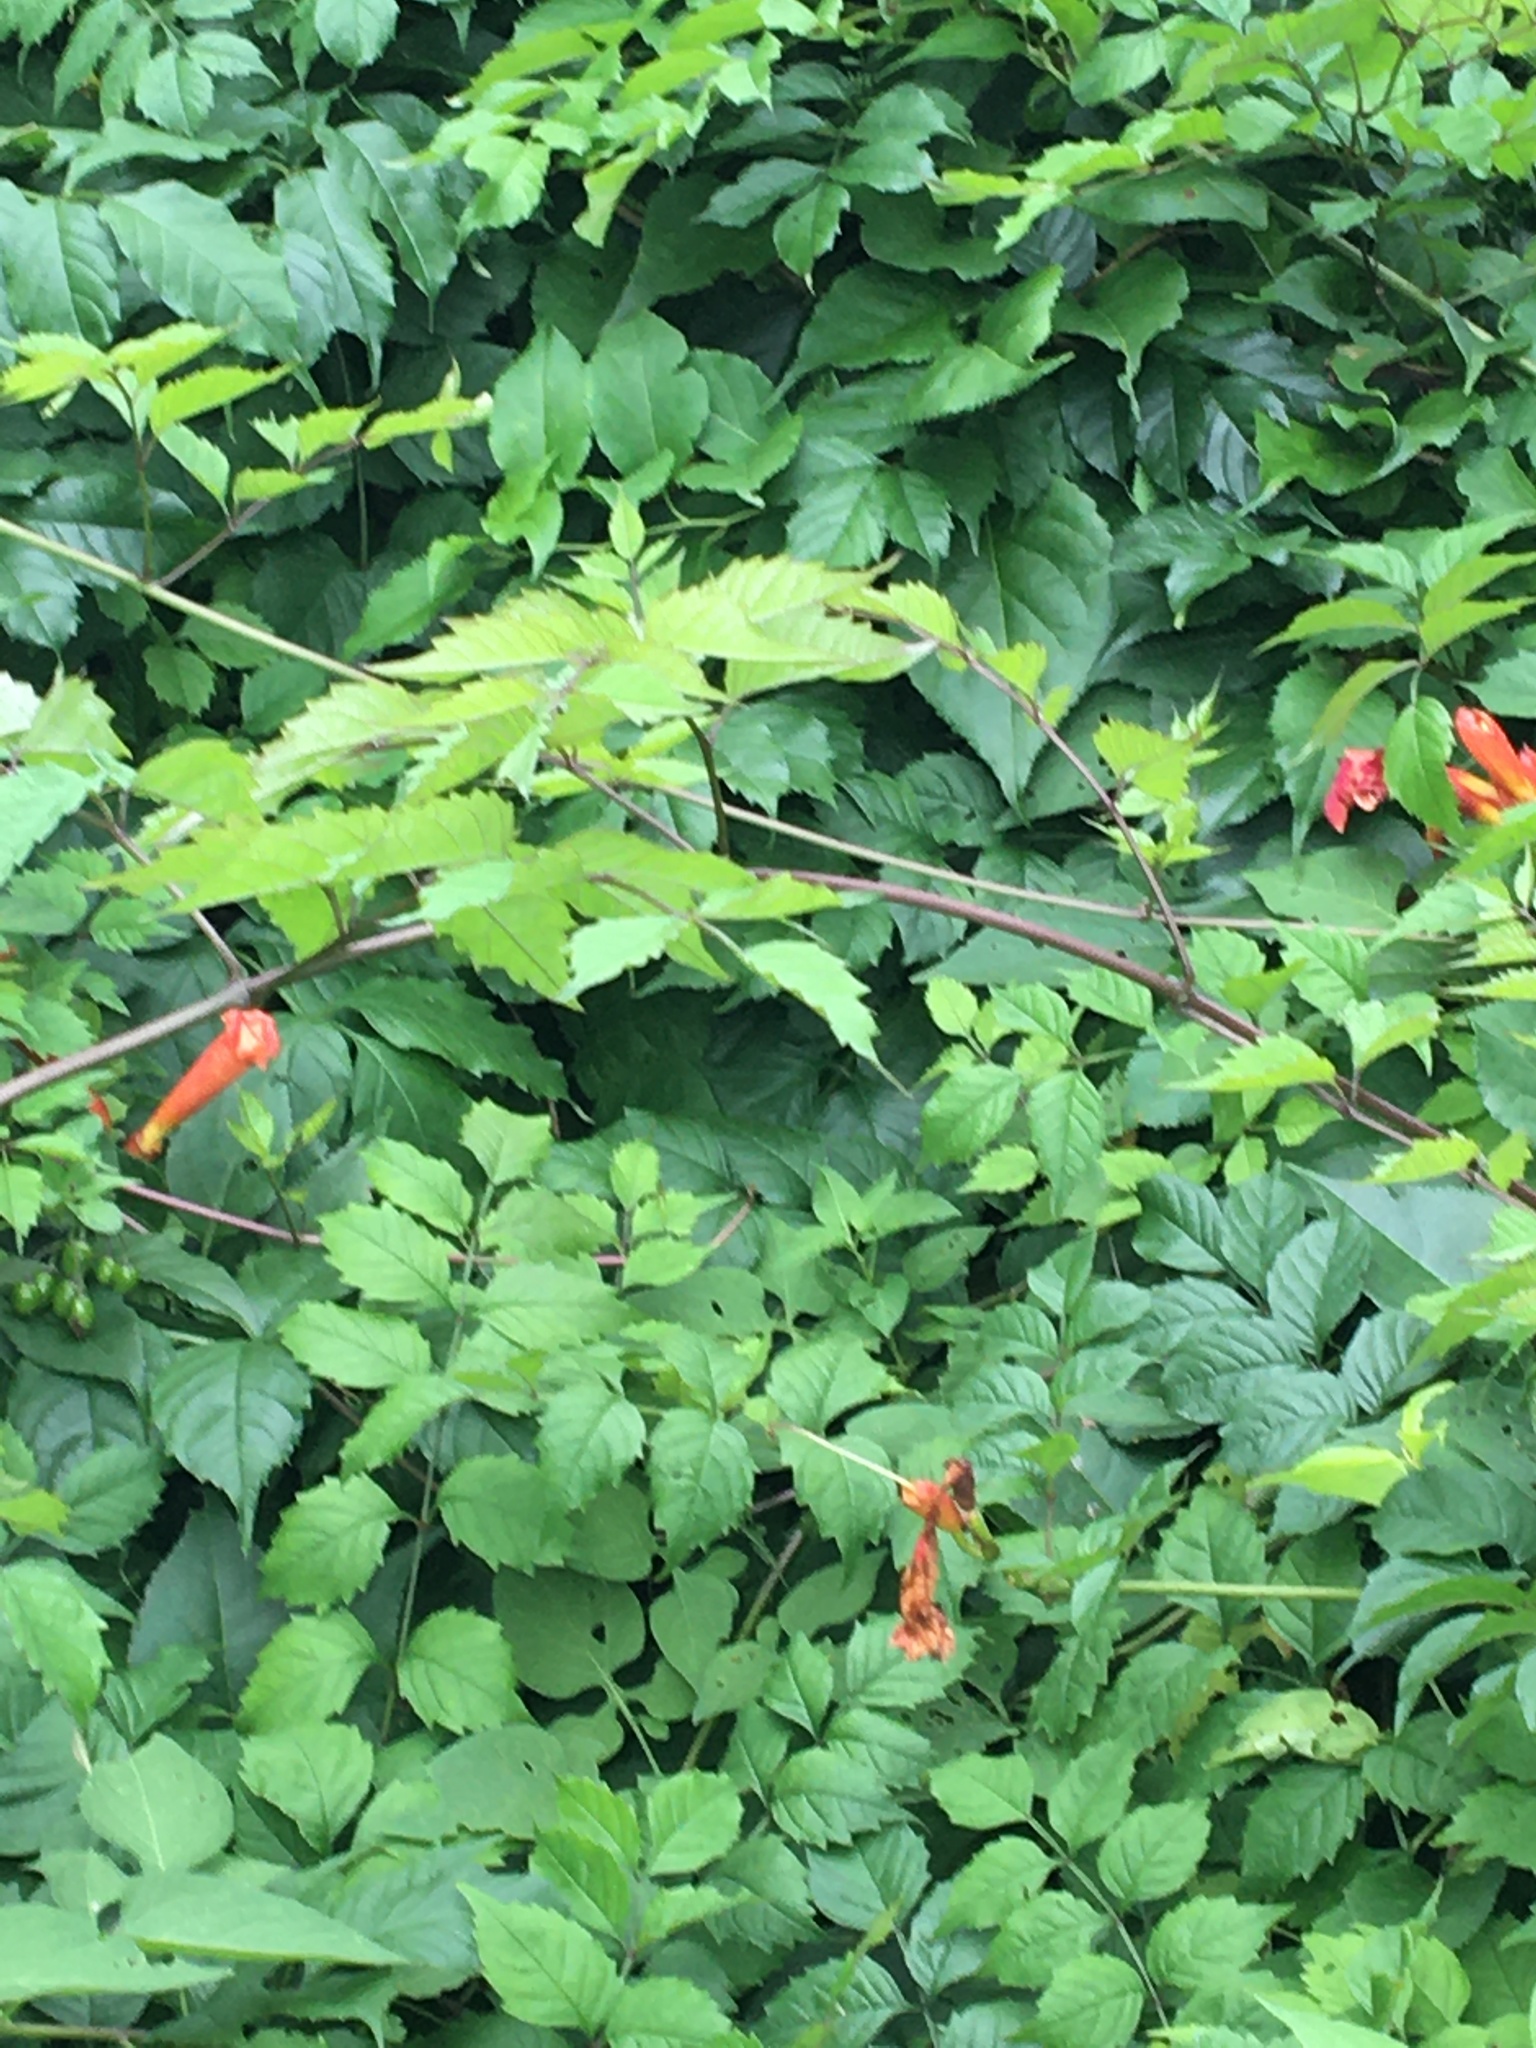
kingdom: Plantae
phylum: Tracheophyta
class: Magnoliopsida
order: Lamiales
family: Bignoniaceae
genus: Campsis
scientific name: Campsis radicans
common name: Trumpet-creeper
